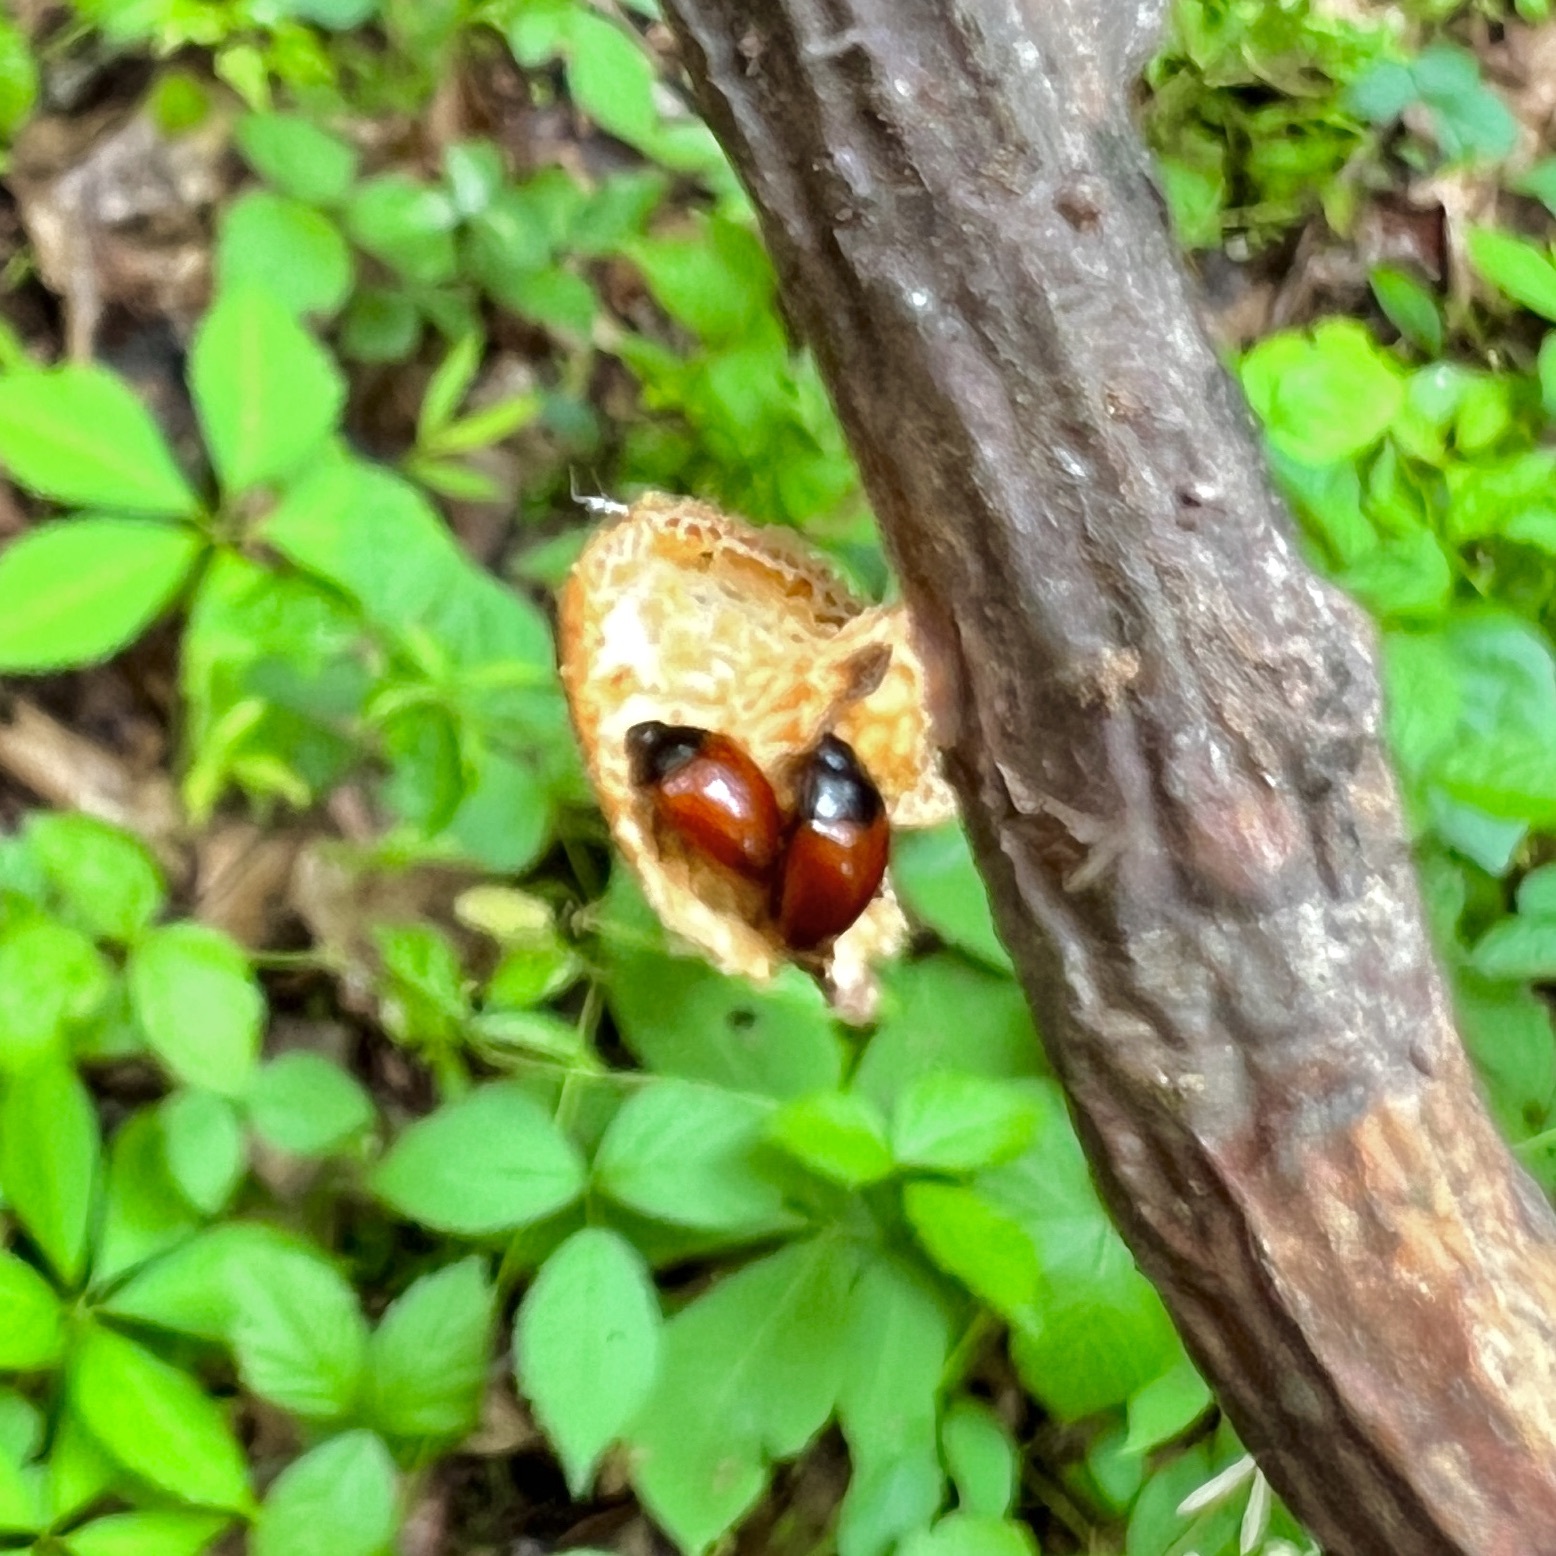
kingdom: Animalia
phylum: Arthropoda
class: Insecta
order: Coleoptera
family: Erotylidae
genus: Tritoma
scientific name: Tritoma sanguinipennis
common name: Red-winged tritoma
